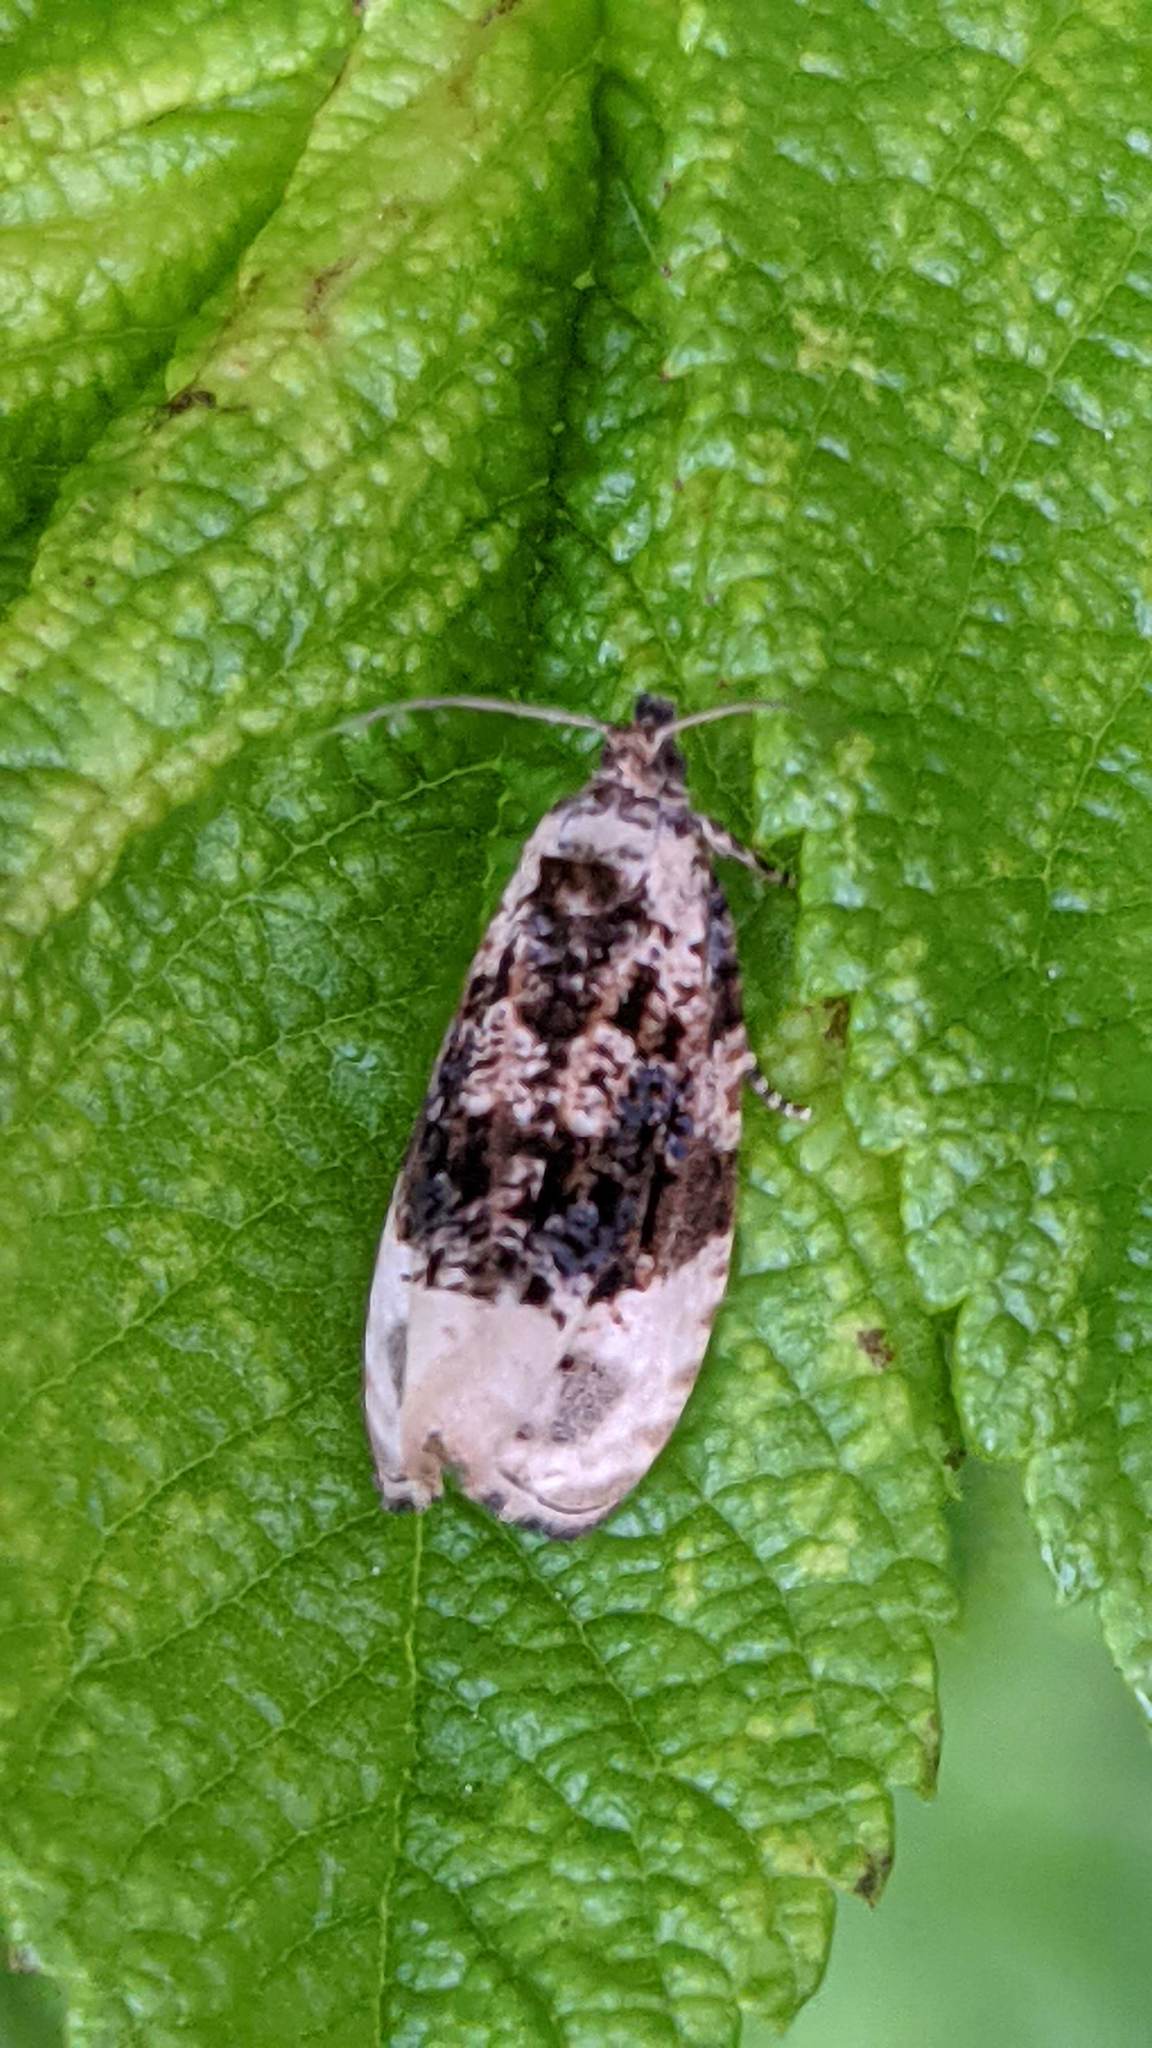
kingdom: Animalia
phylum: Arthropoda
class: Insecta
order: Lepidoptera
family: Tortricidae
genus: Hedya
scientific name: Hedya ochroleucana
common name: Buff-tipped marble
